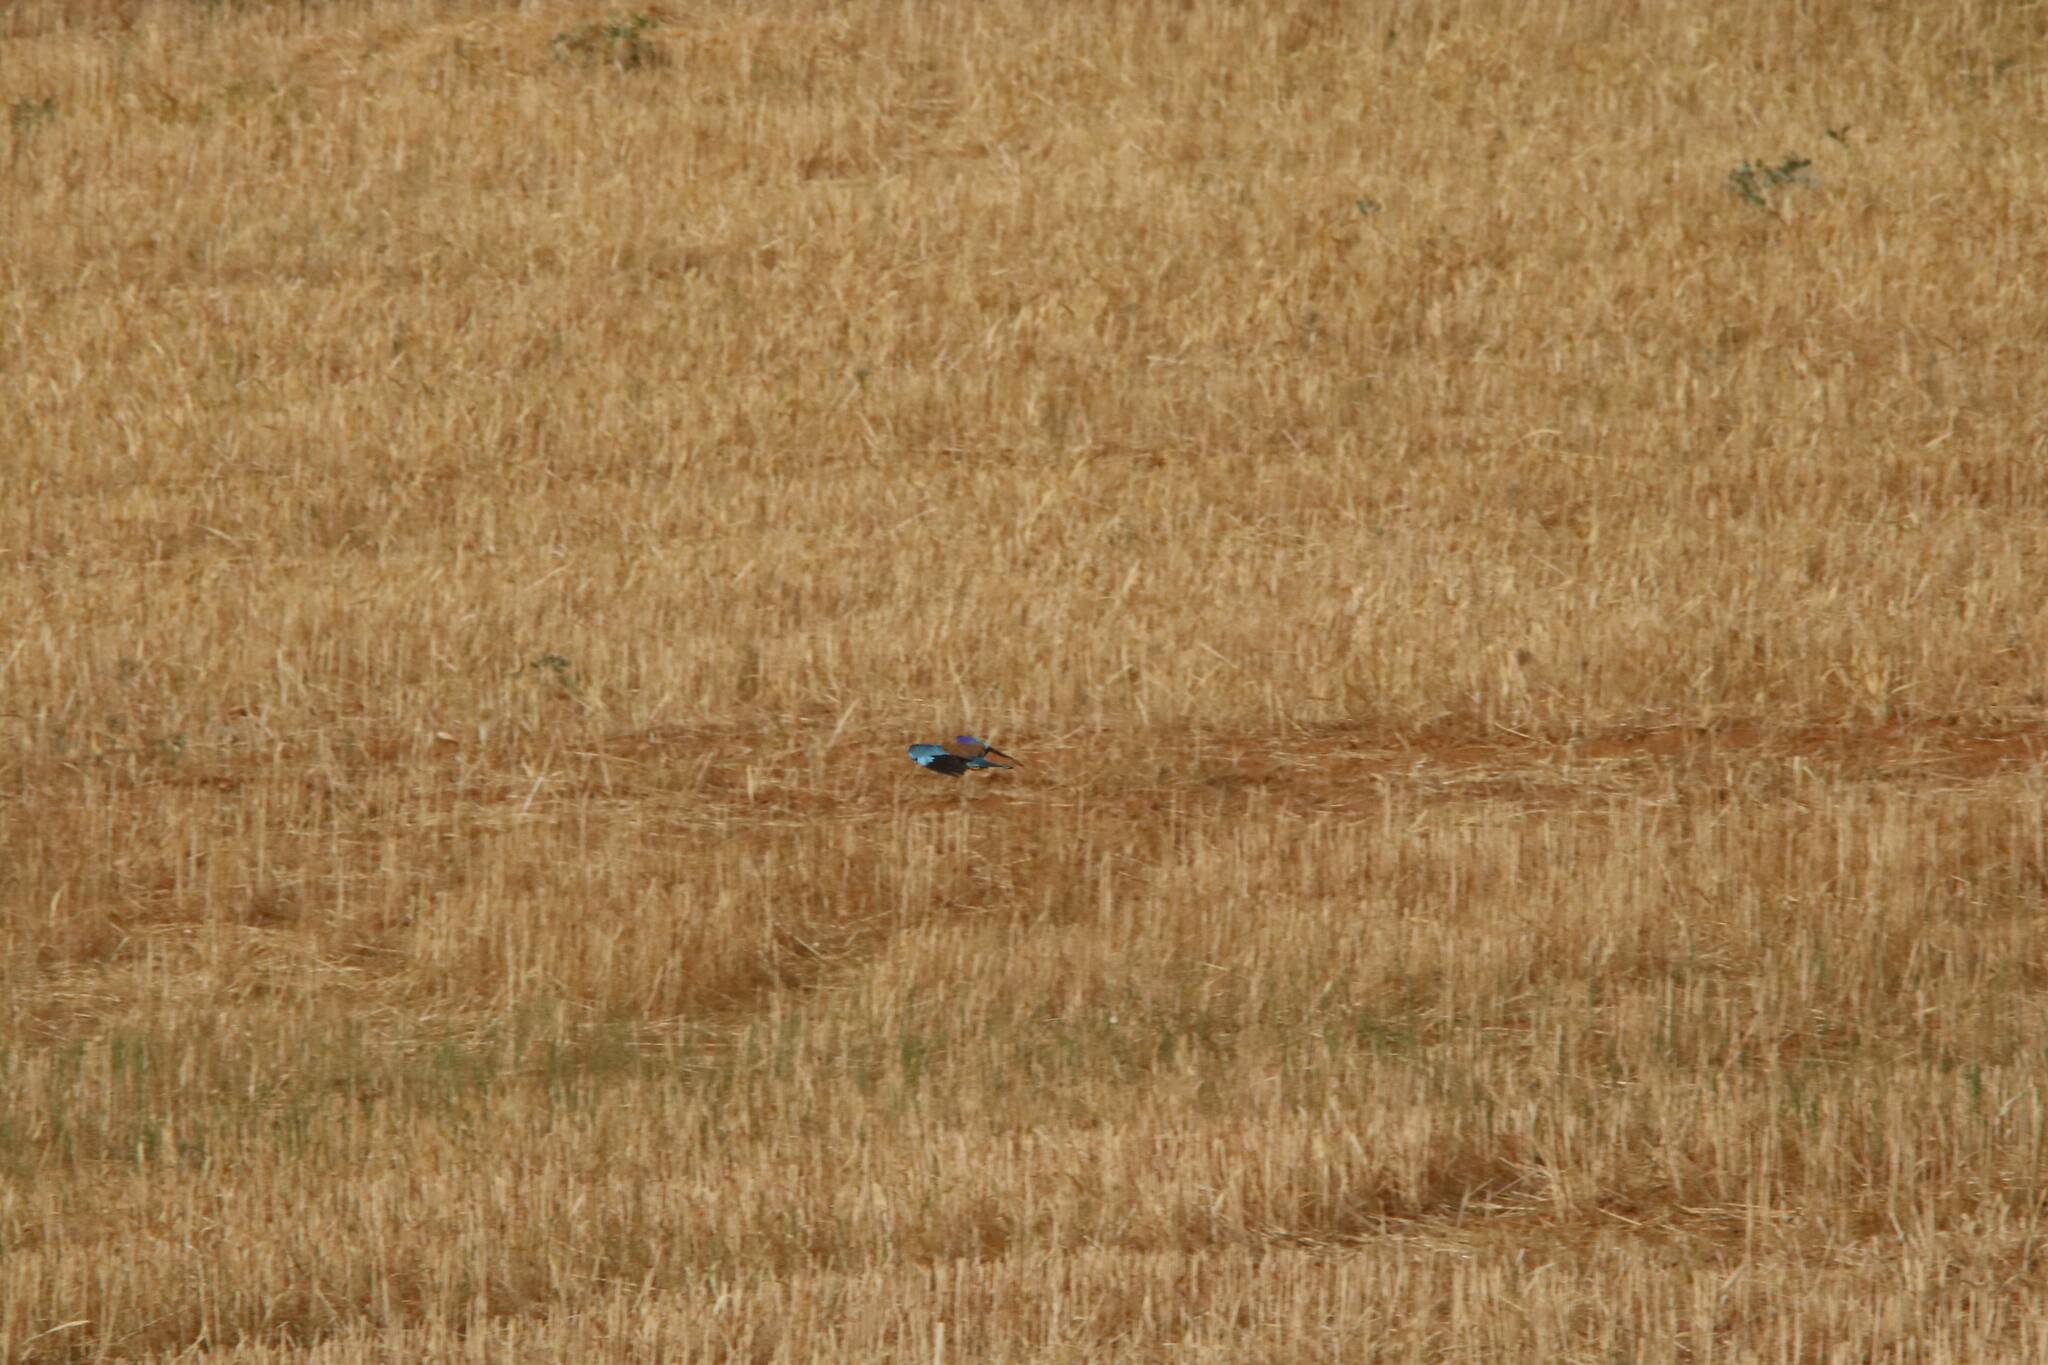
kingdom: Animalia
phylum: Chordata
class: Aves
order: Coraciiformes
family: Coraciidae
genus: Coracias
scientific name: Coracias garrulus
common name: European roller
